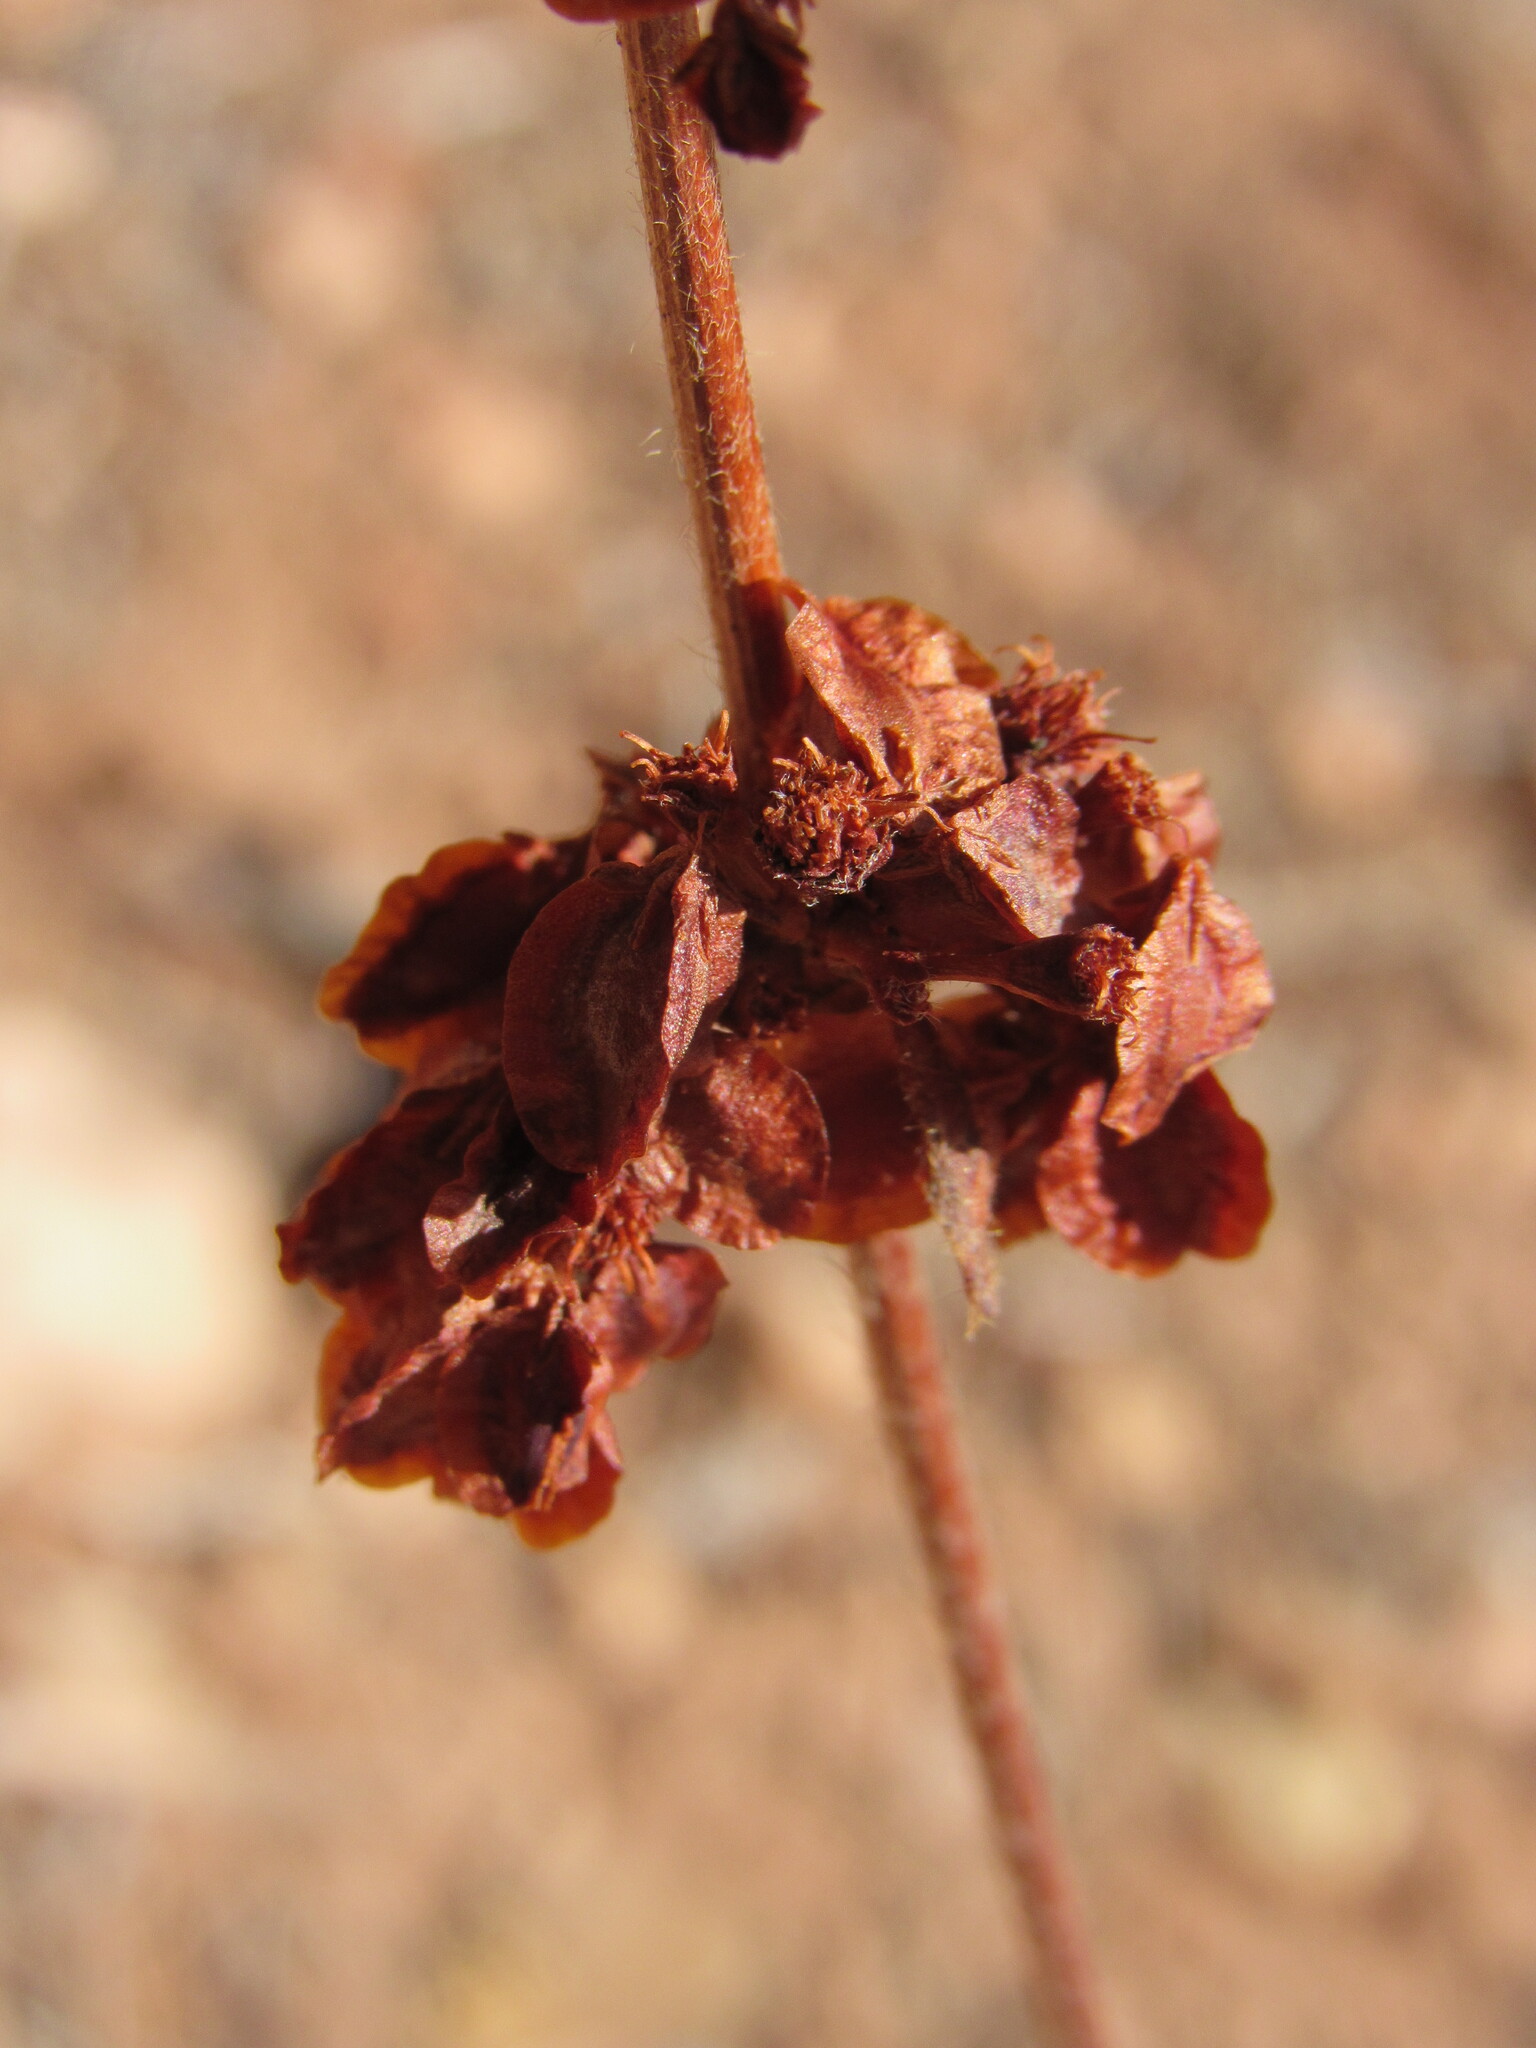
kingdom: Plantae
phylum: Tracheophyta
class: Magnoliopsida
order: Caryophyllales
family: Polygonaceae
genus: Eriogonum
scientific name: Eriogonum alatum
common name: Winged eriogonum
